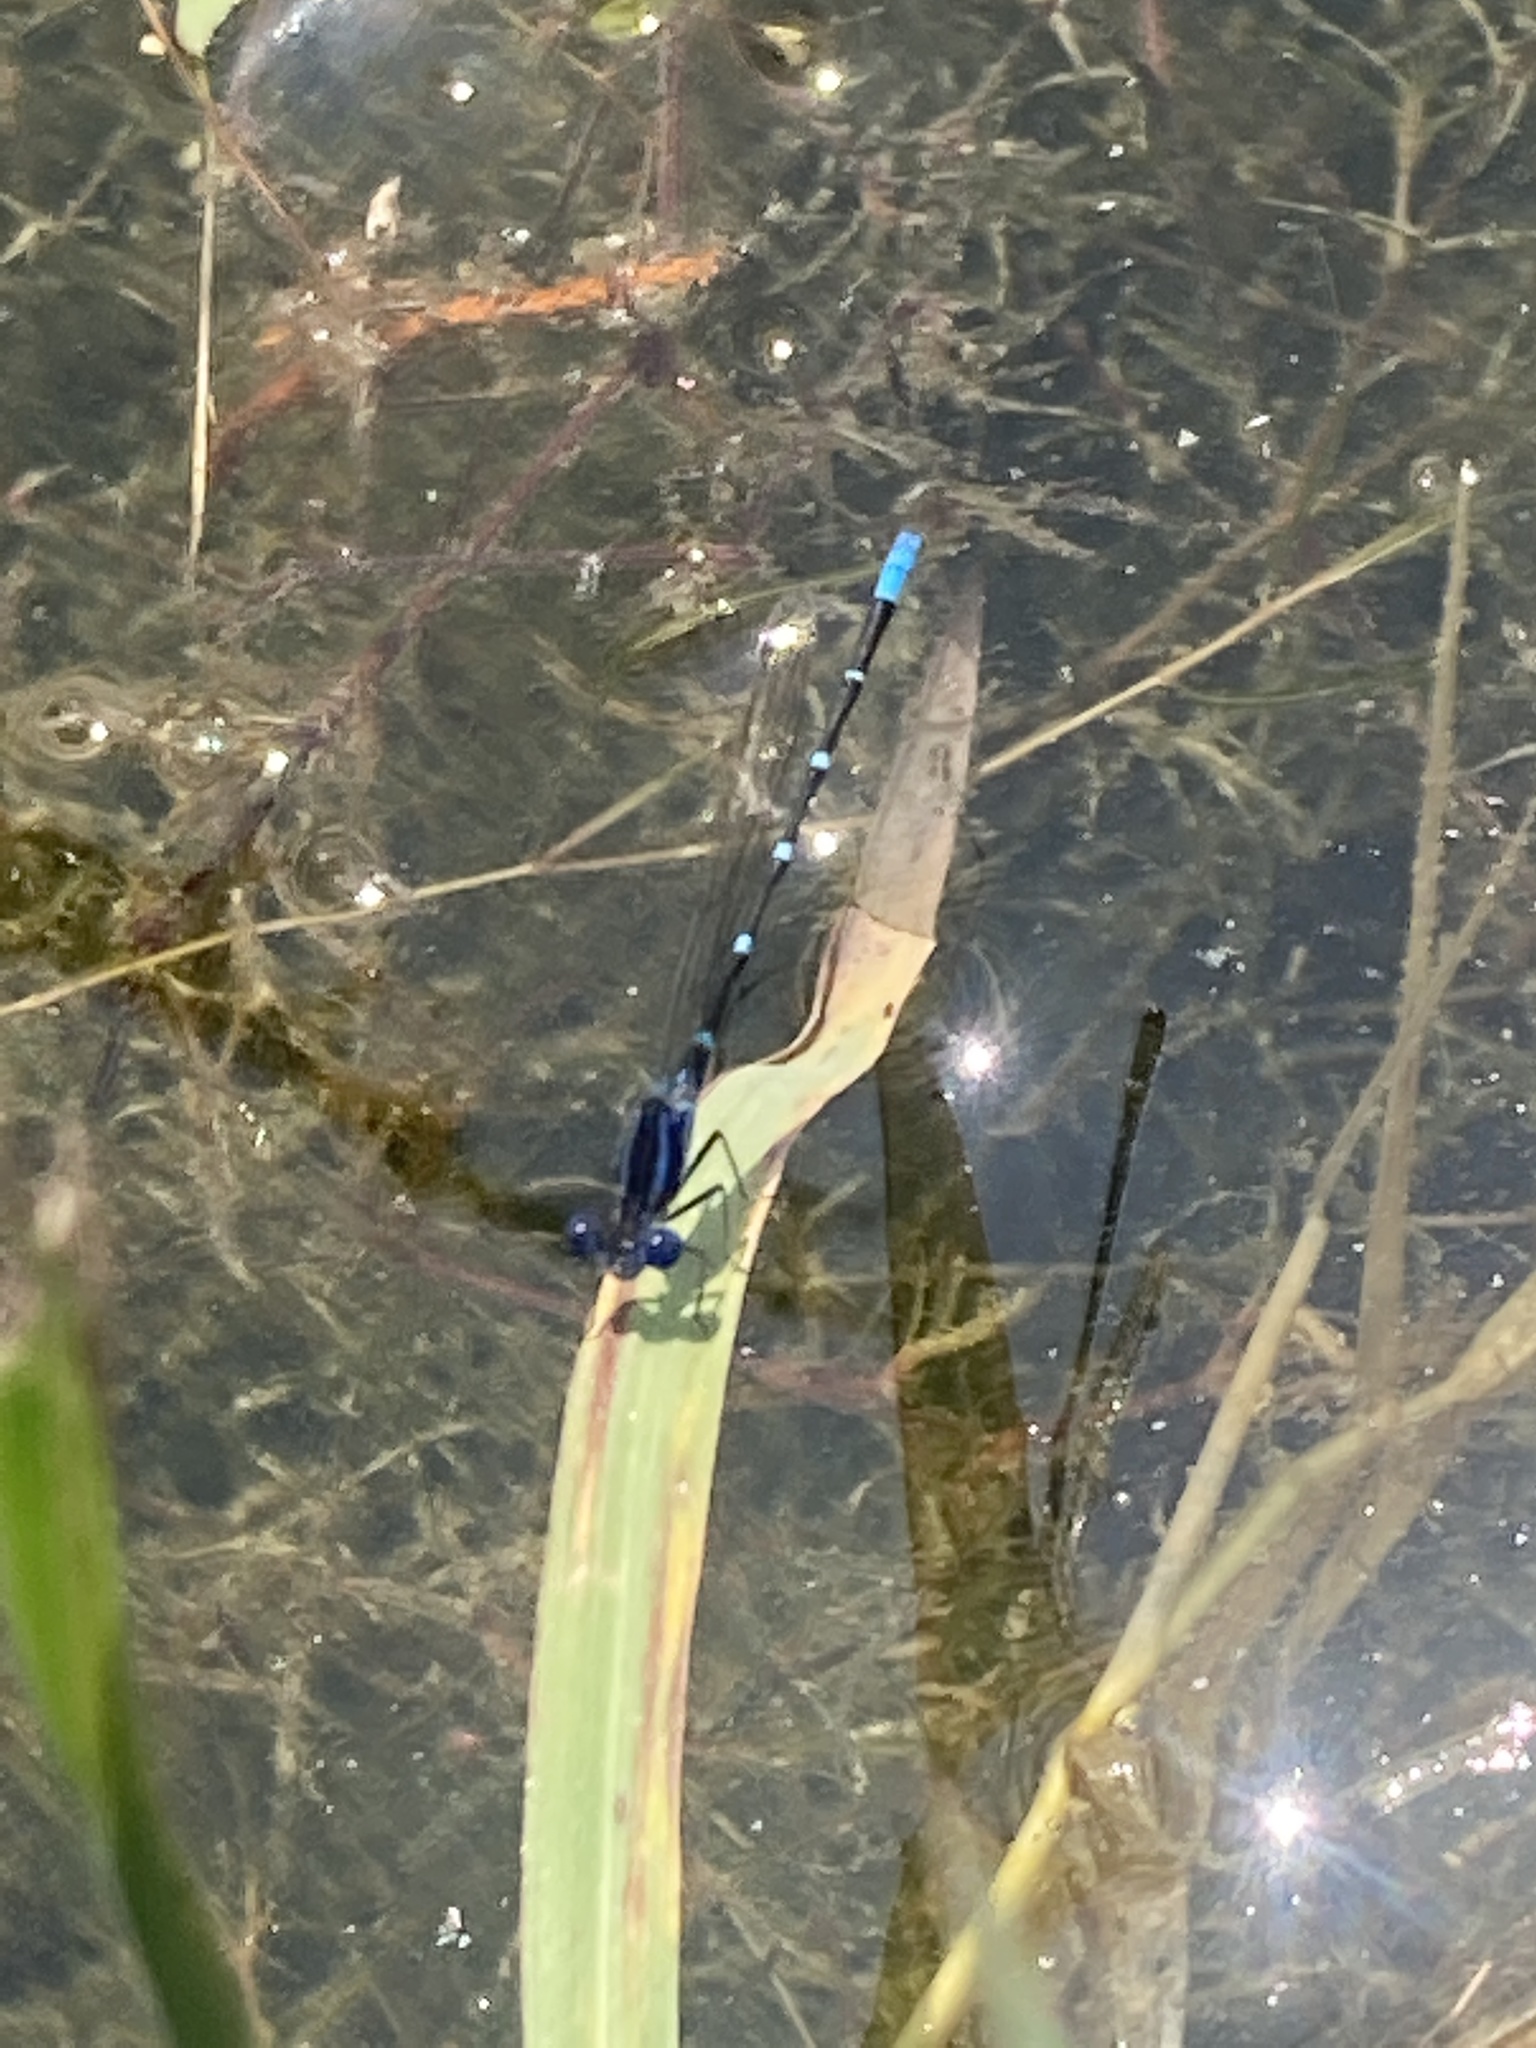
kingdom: Animalia
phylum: Arthropoda
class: Insecta
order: Odonata
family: Coenagrionidae
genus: Argia
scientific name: Argia sedula
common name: Blue-ringed dancer
